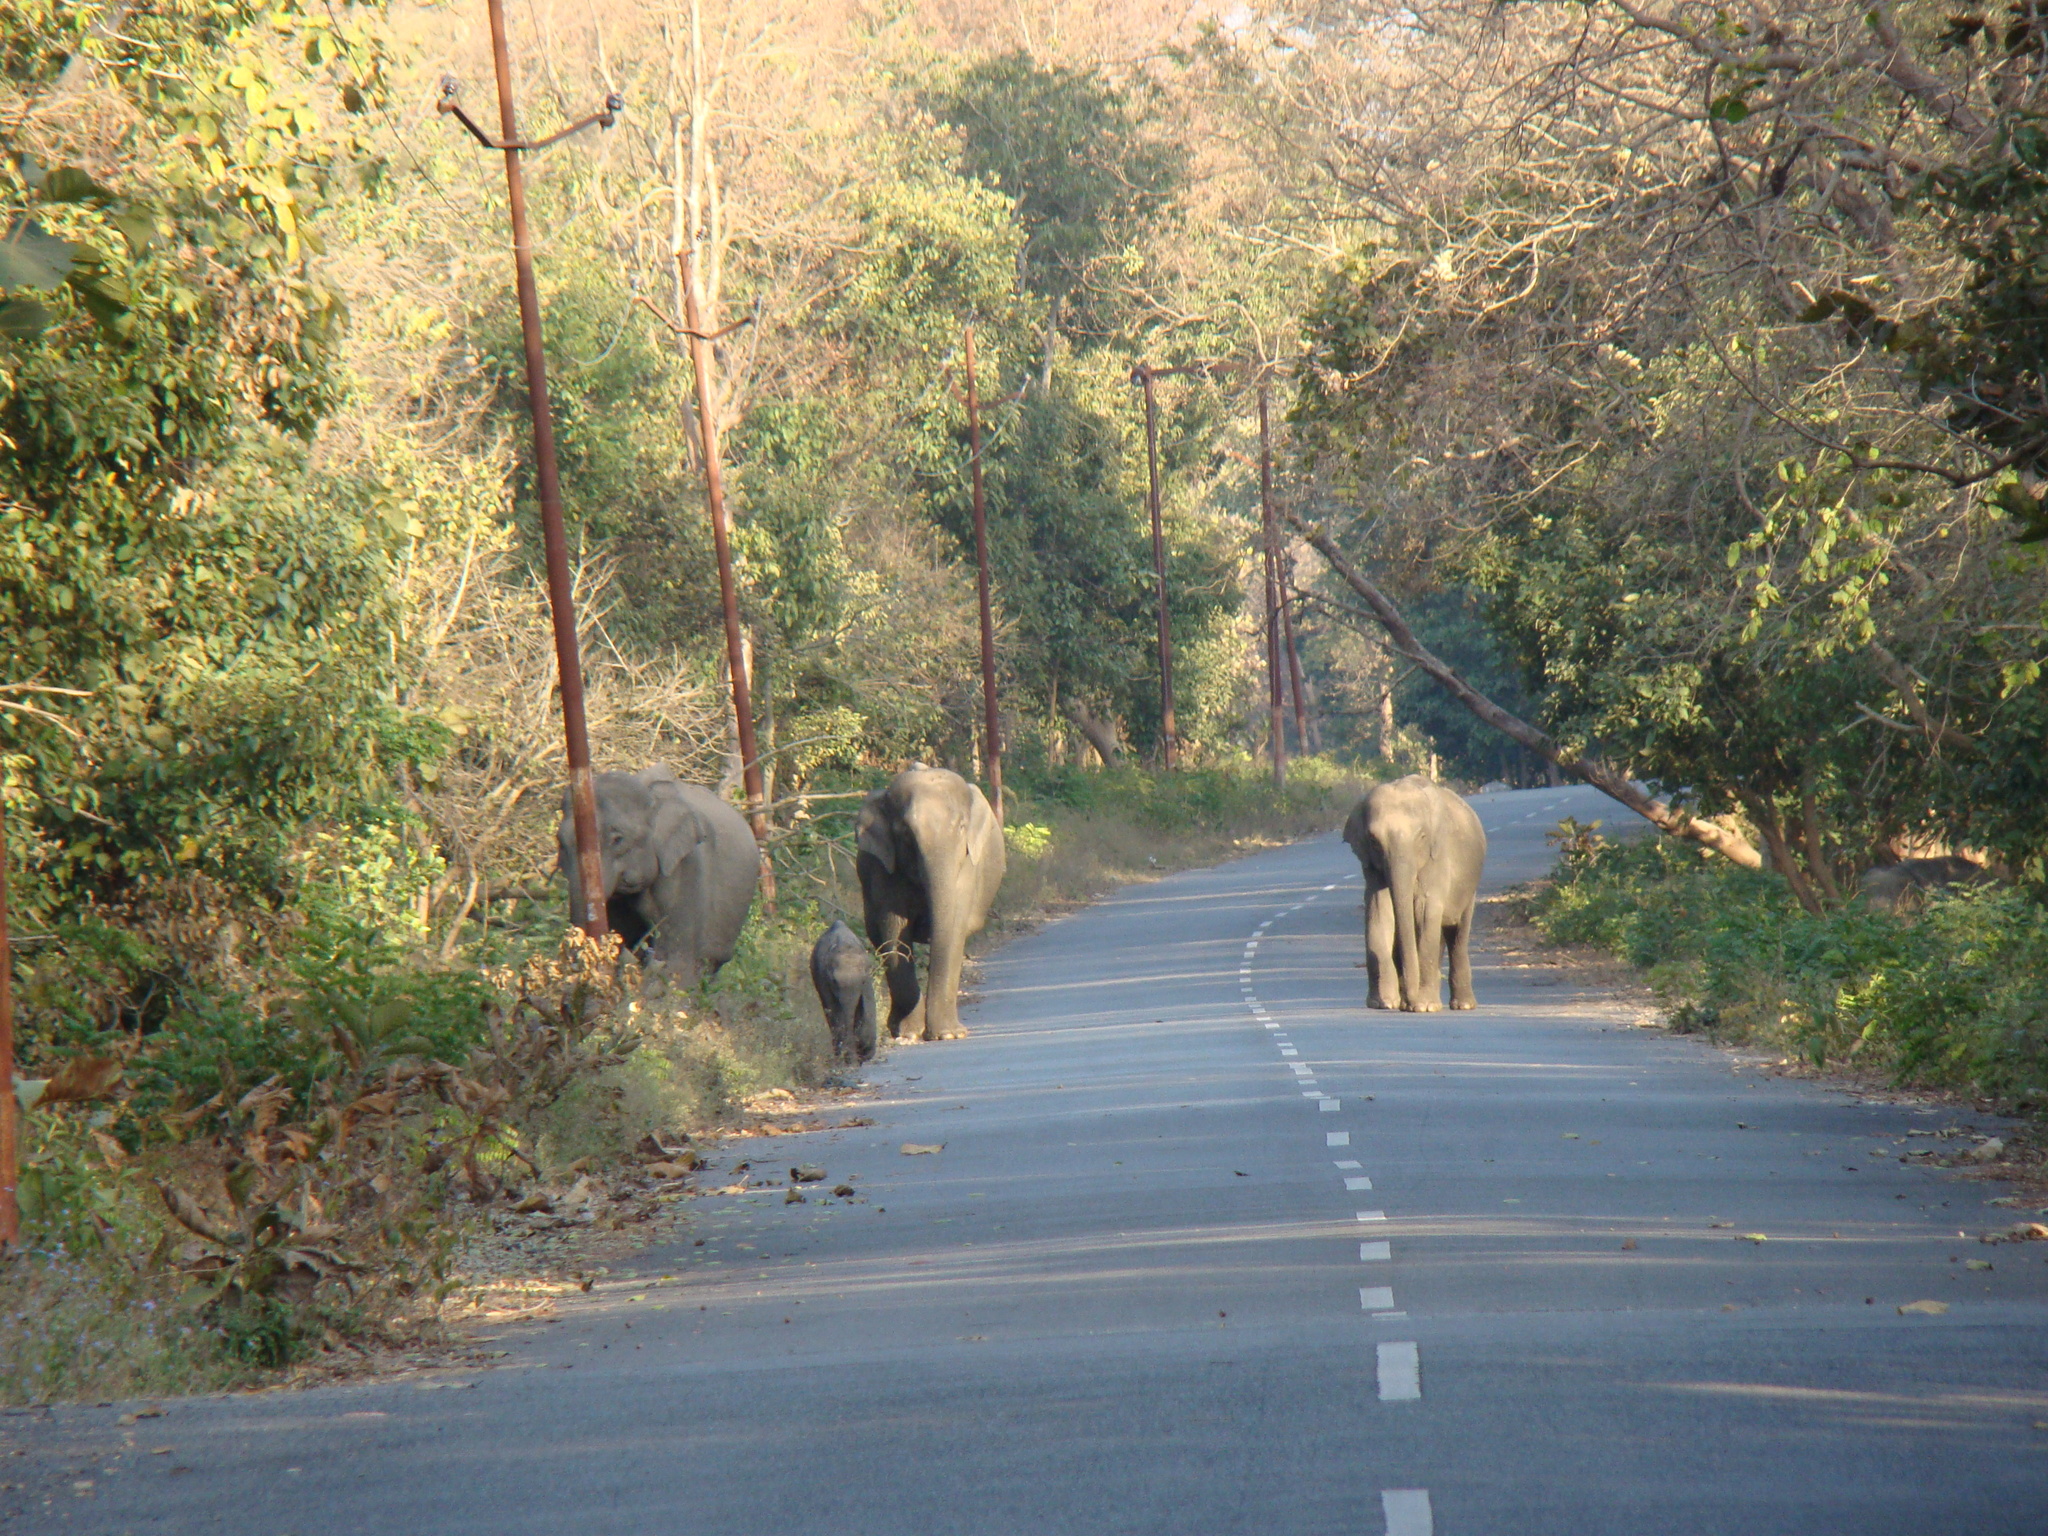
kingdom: Animalia
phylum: Chordata
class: Mammalia
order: Proboscidea
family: Elephantidae
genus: Elephas
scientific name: Elephas maximus
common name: Asian elephant
